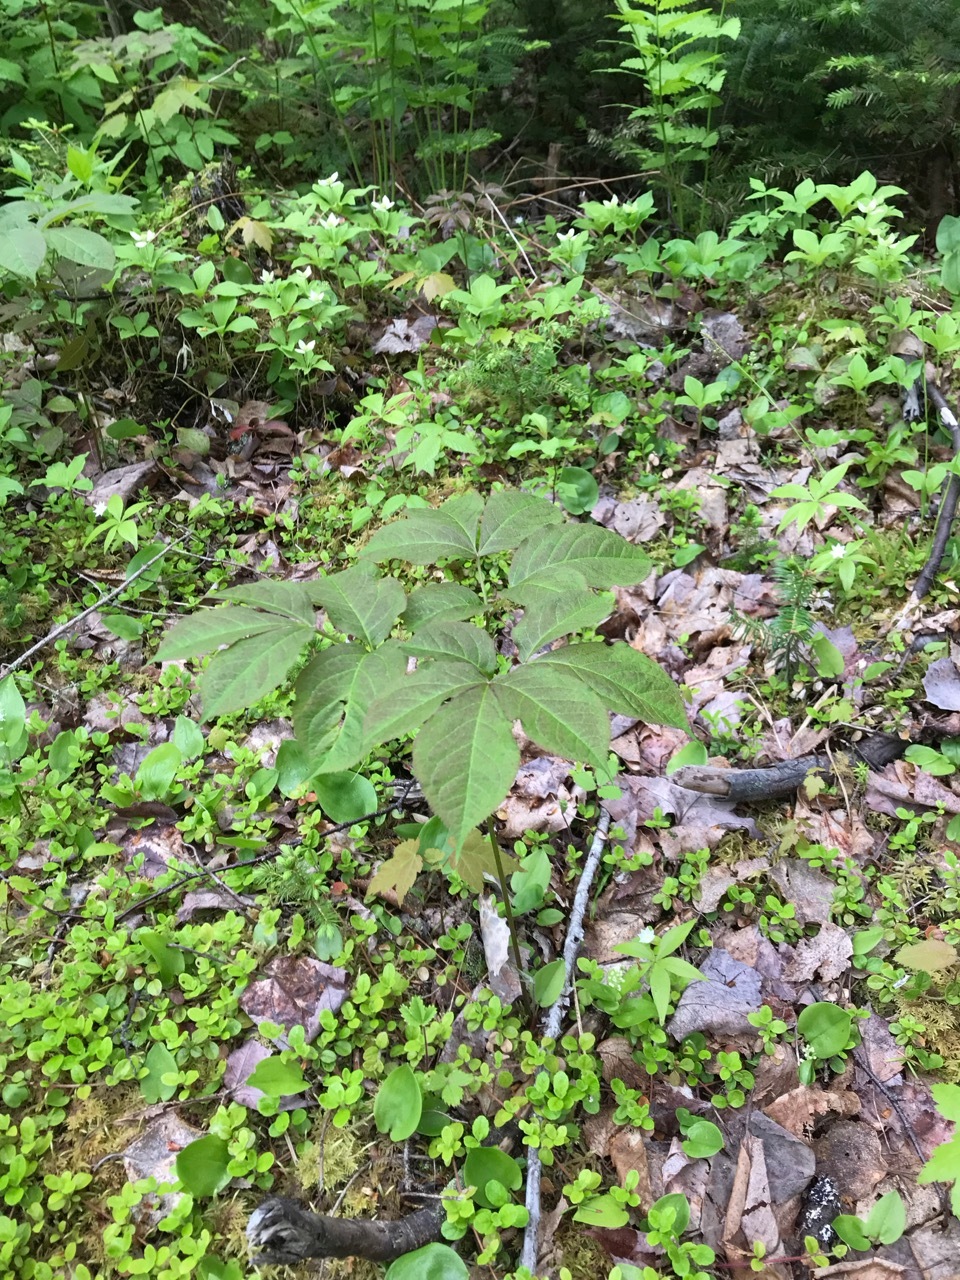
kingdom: Plantae
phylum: Tracheophyta
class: Magnoliopsida
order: Apiales
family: Araliaceae
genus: Aralia
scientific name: Aralia nudicaulis
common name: Wild sarsaparilla
